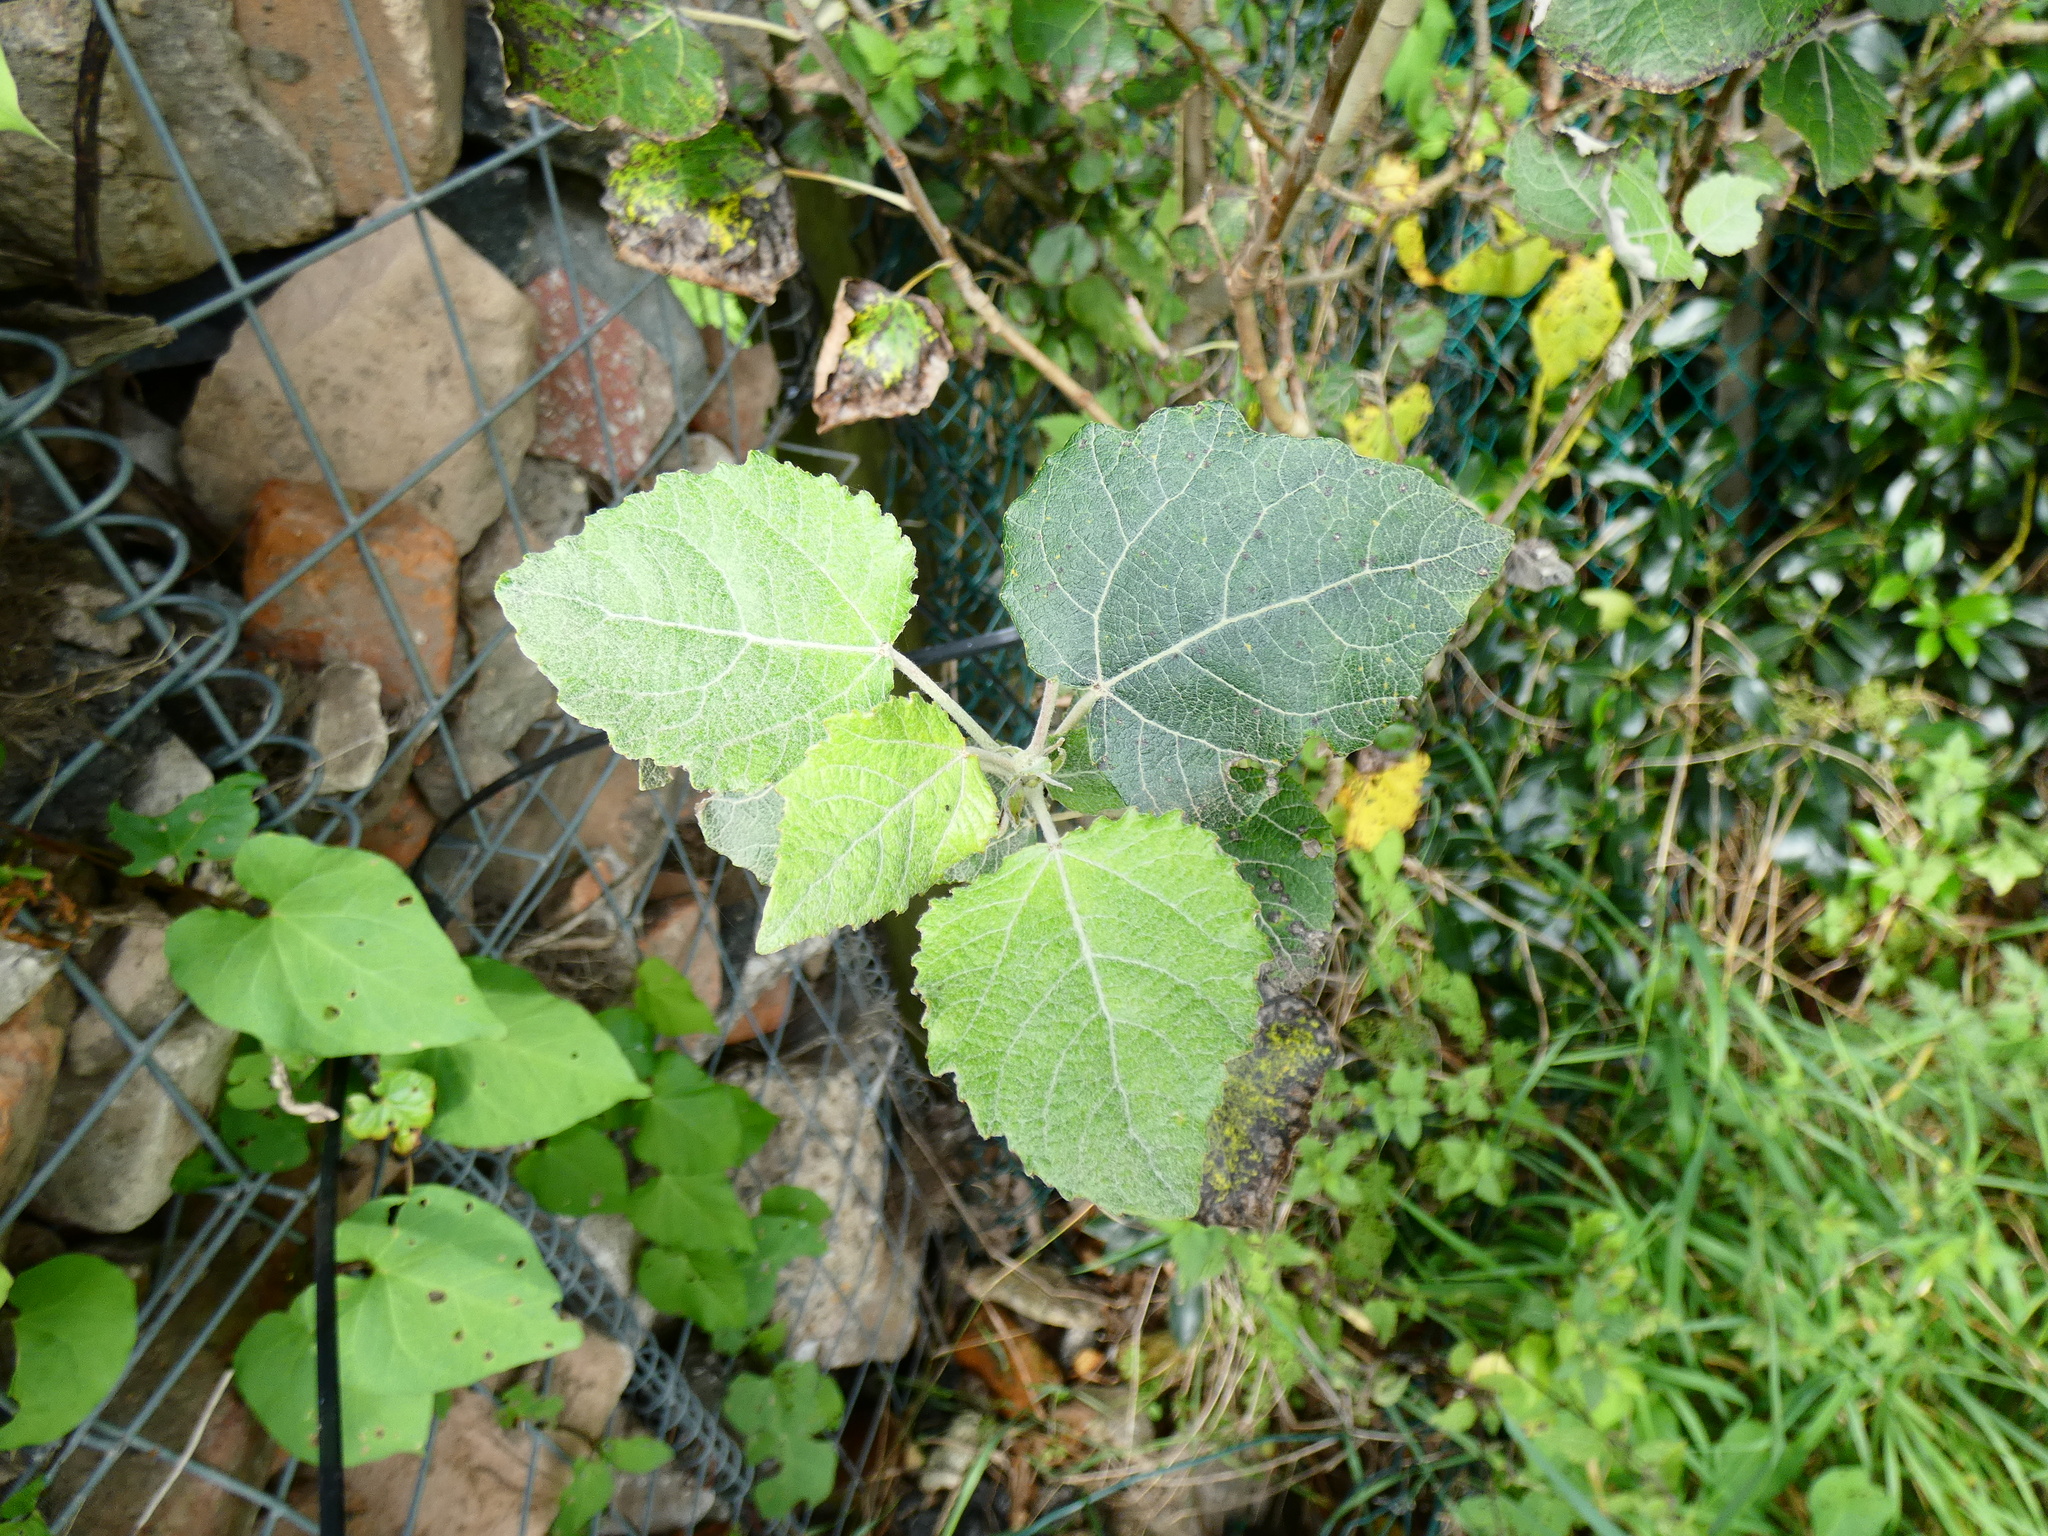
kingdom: Plantae
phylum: Tracheophyta
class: Magnoliopsida
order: Malpighiales
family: Salicaceae
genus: Populus
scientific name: Populus canescens
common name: Gray poplar
